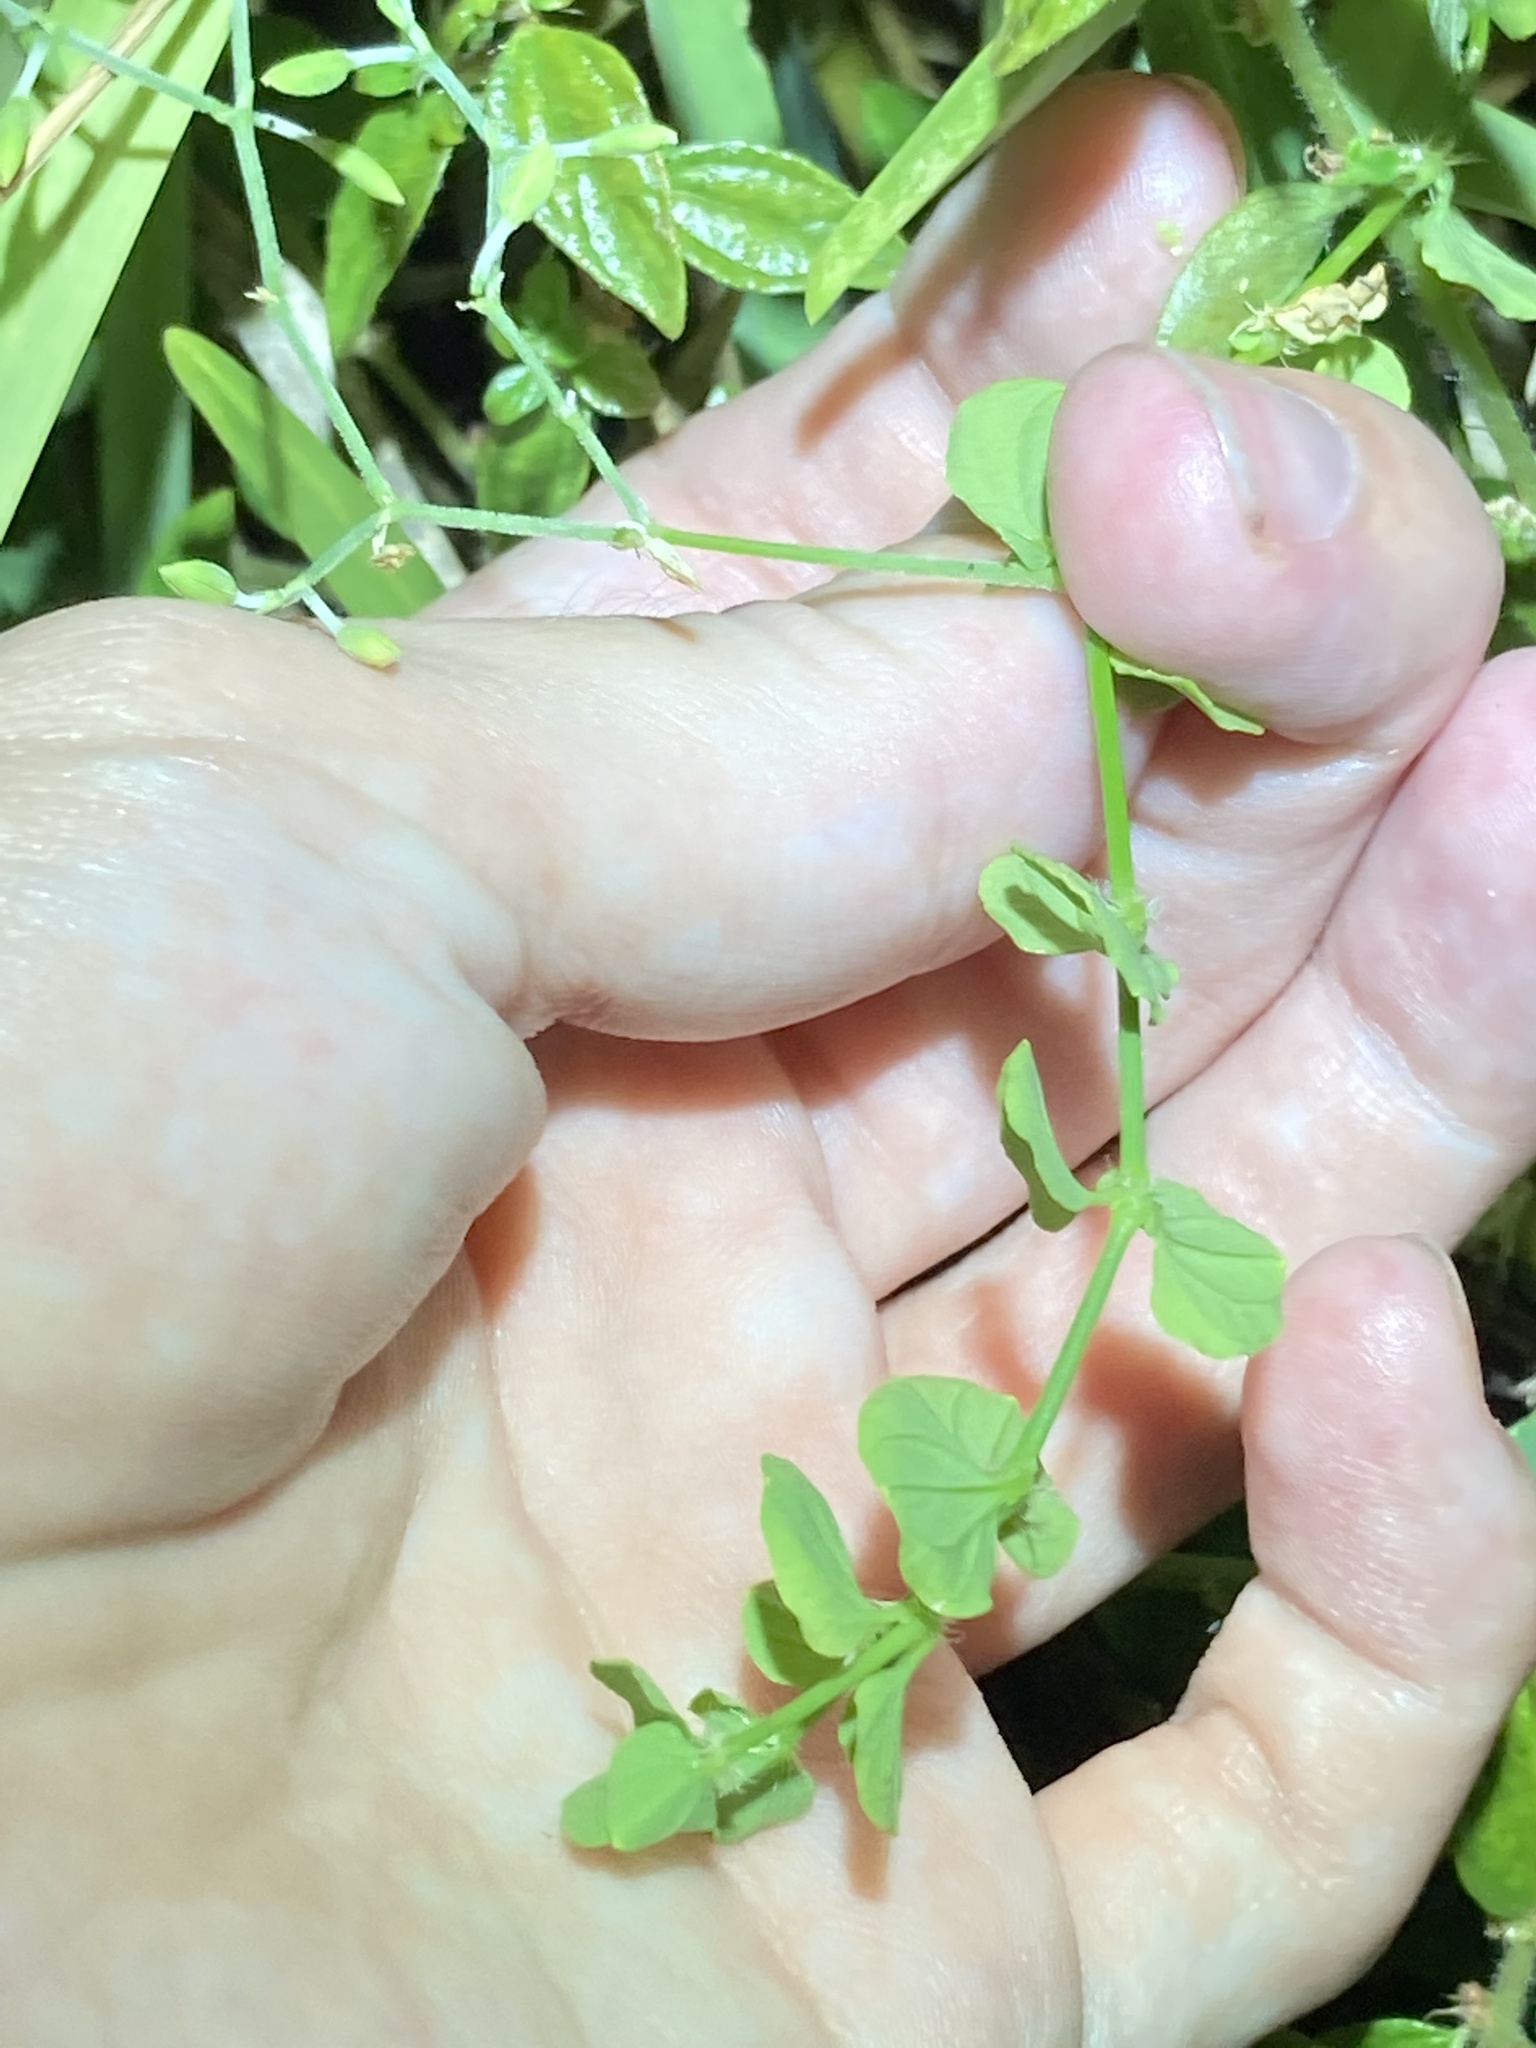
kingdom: Plantae
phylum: Tracheophyta
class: Magnoliopsida
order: Caryophyllales
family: Caryophyllaceae
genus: Drymaria
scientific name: Drymaria cordata
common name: Whitesnow
